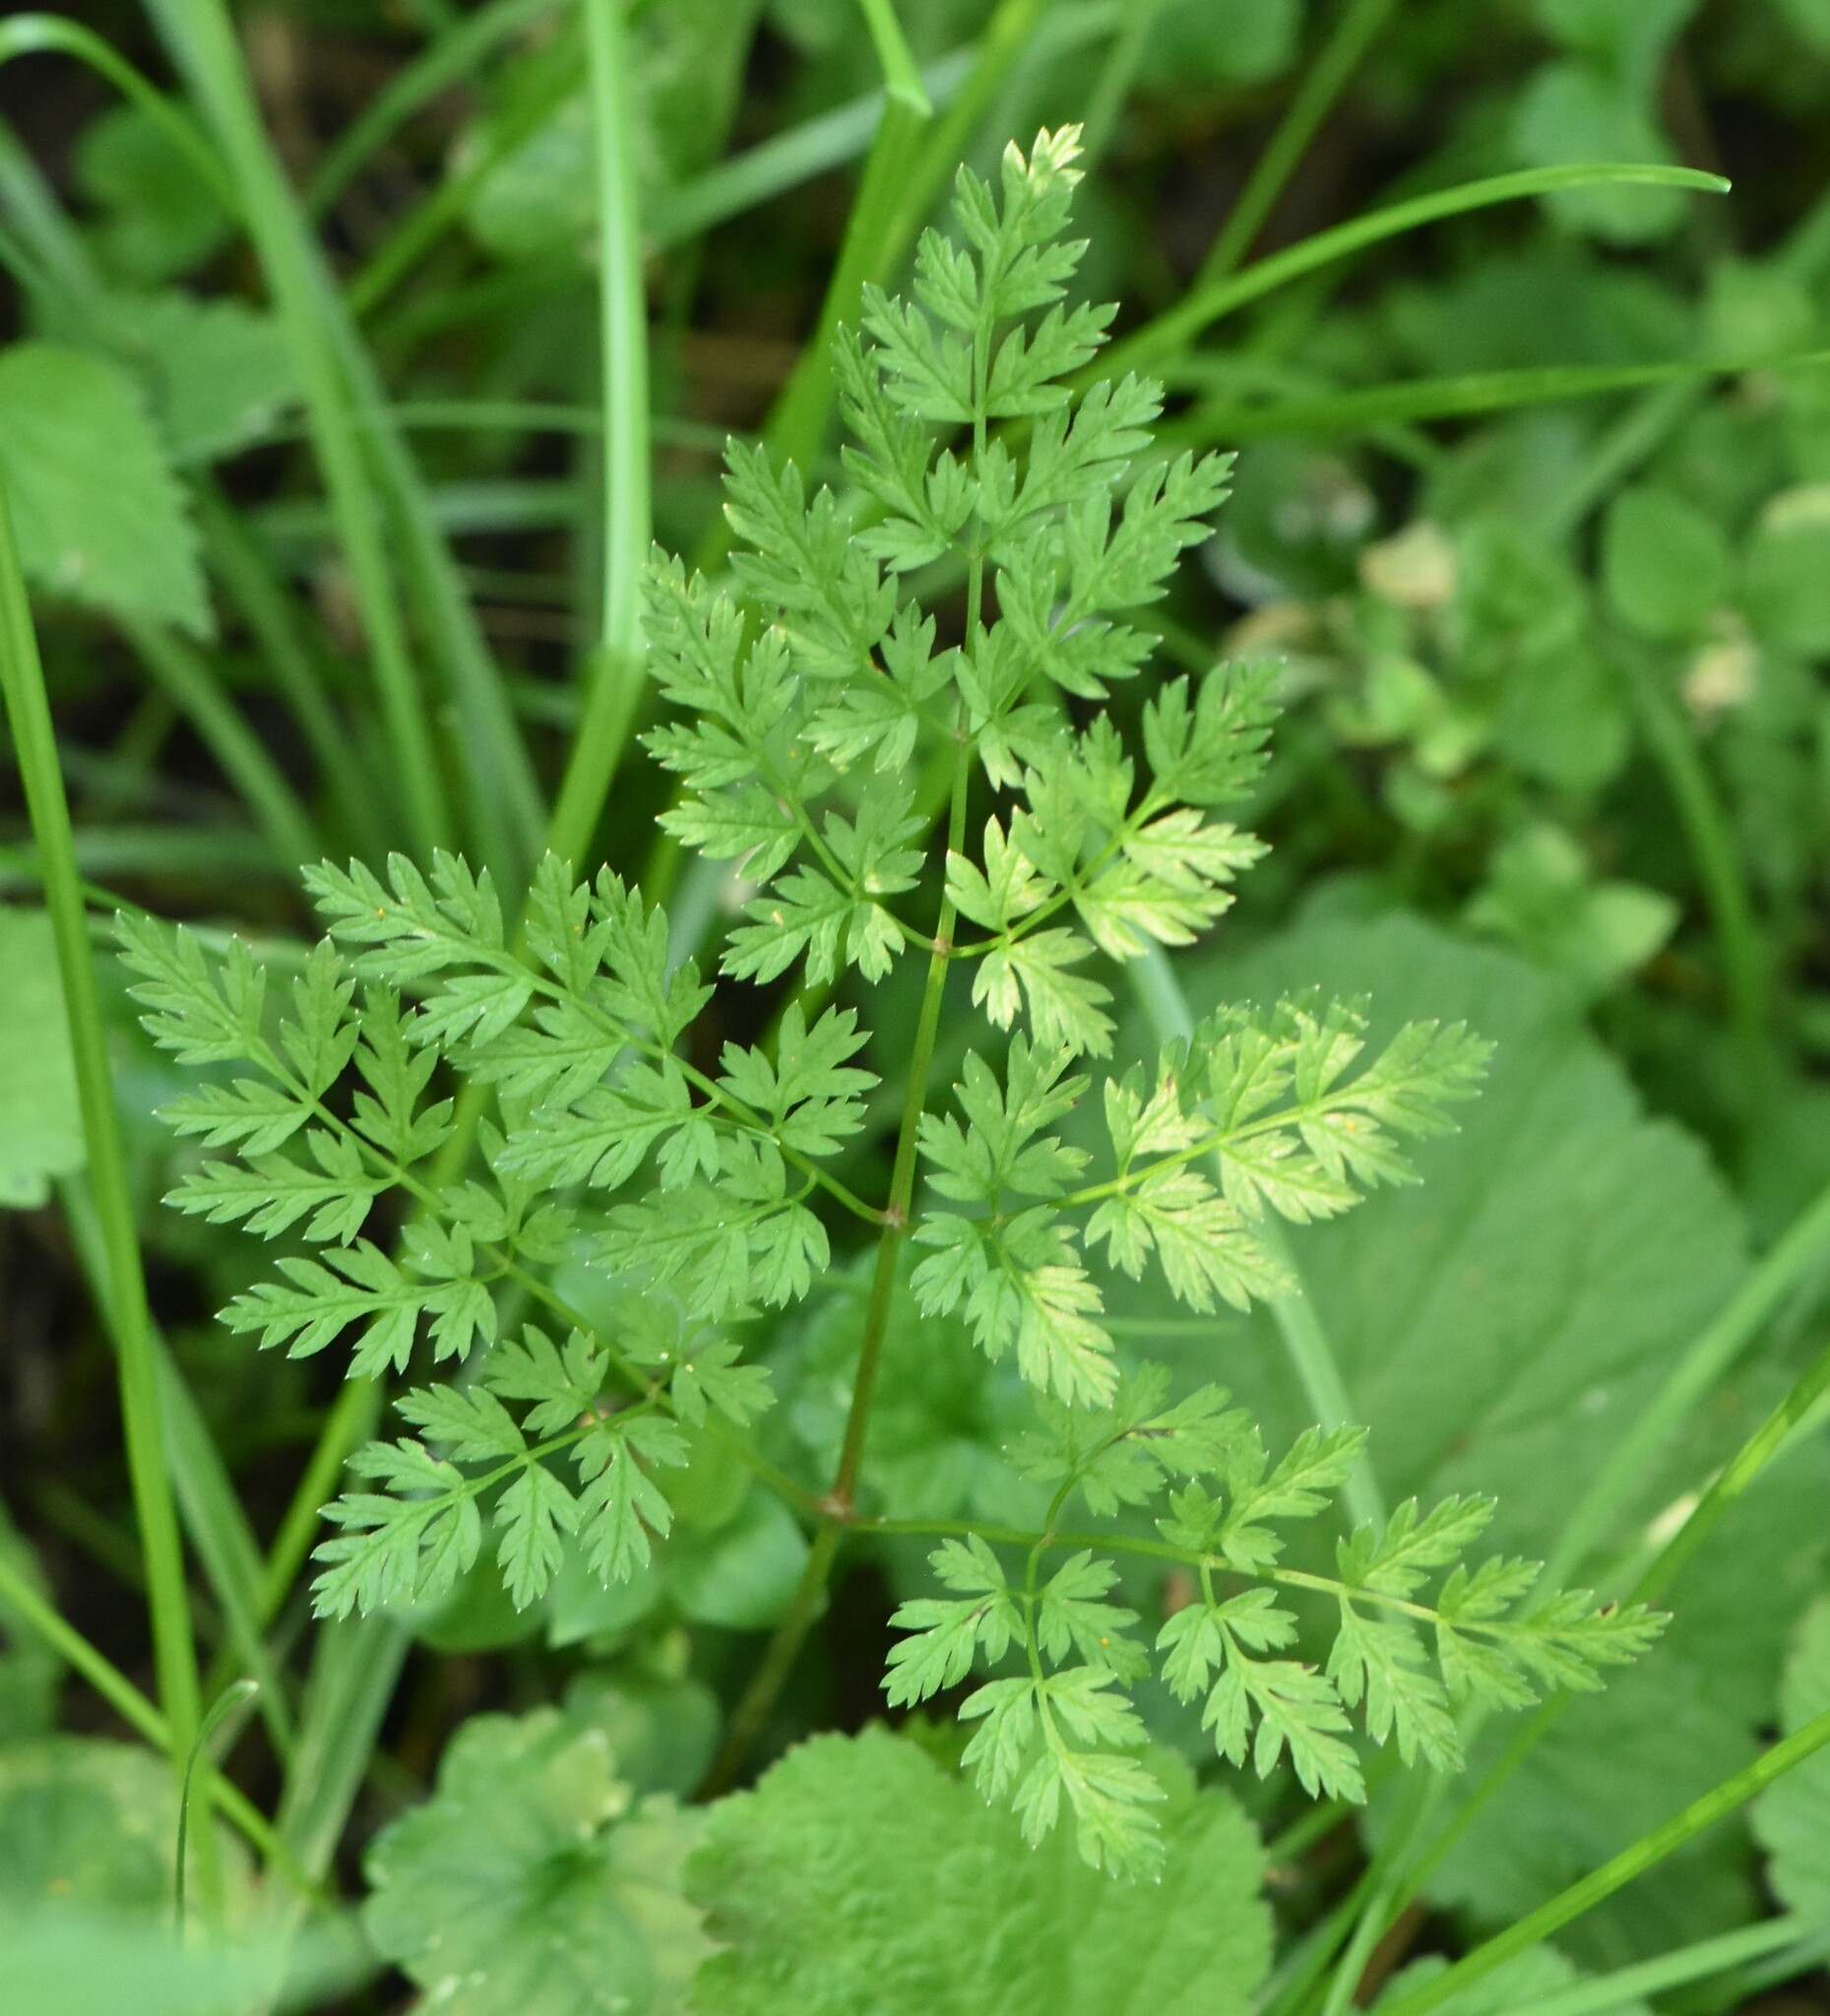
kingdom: Plantae
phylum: Tracheophyta
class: Magnoliopsida
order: Apiales
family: Apiaceae
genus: Anthriscus
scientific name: Anthriscus sylvestris
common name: Cow parsley
